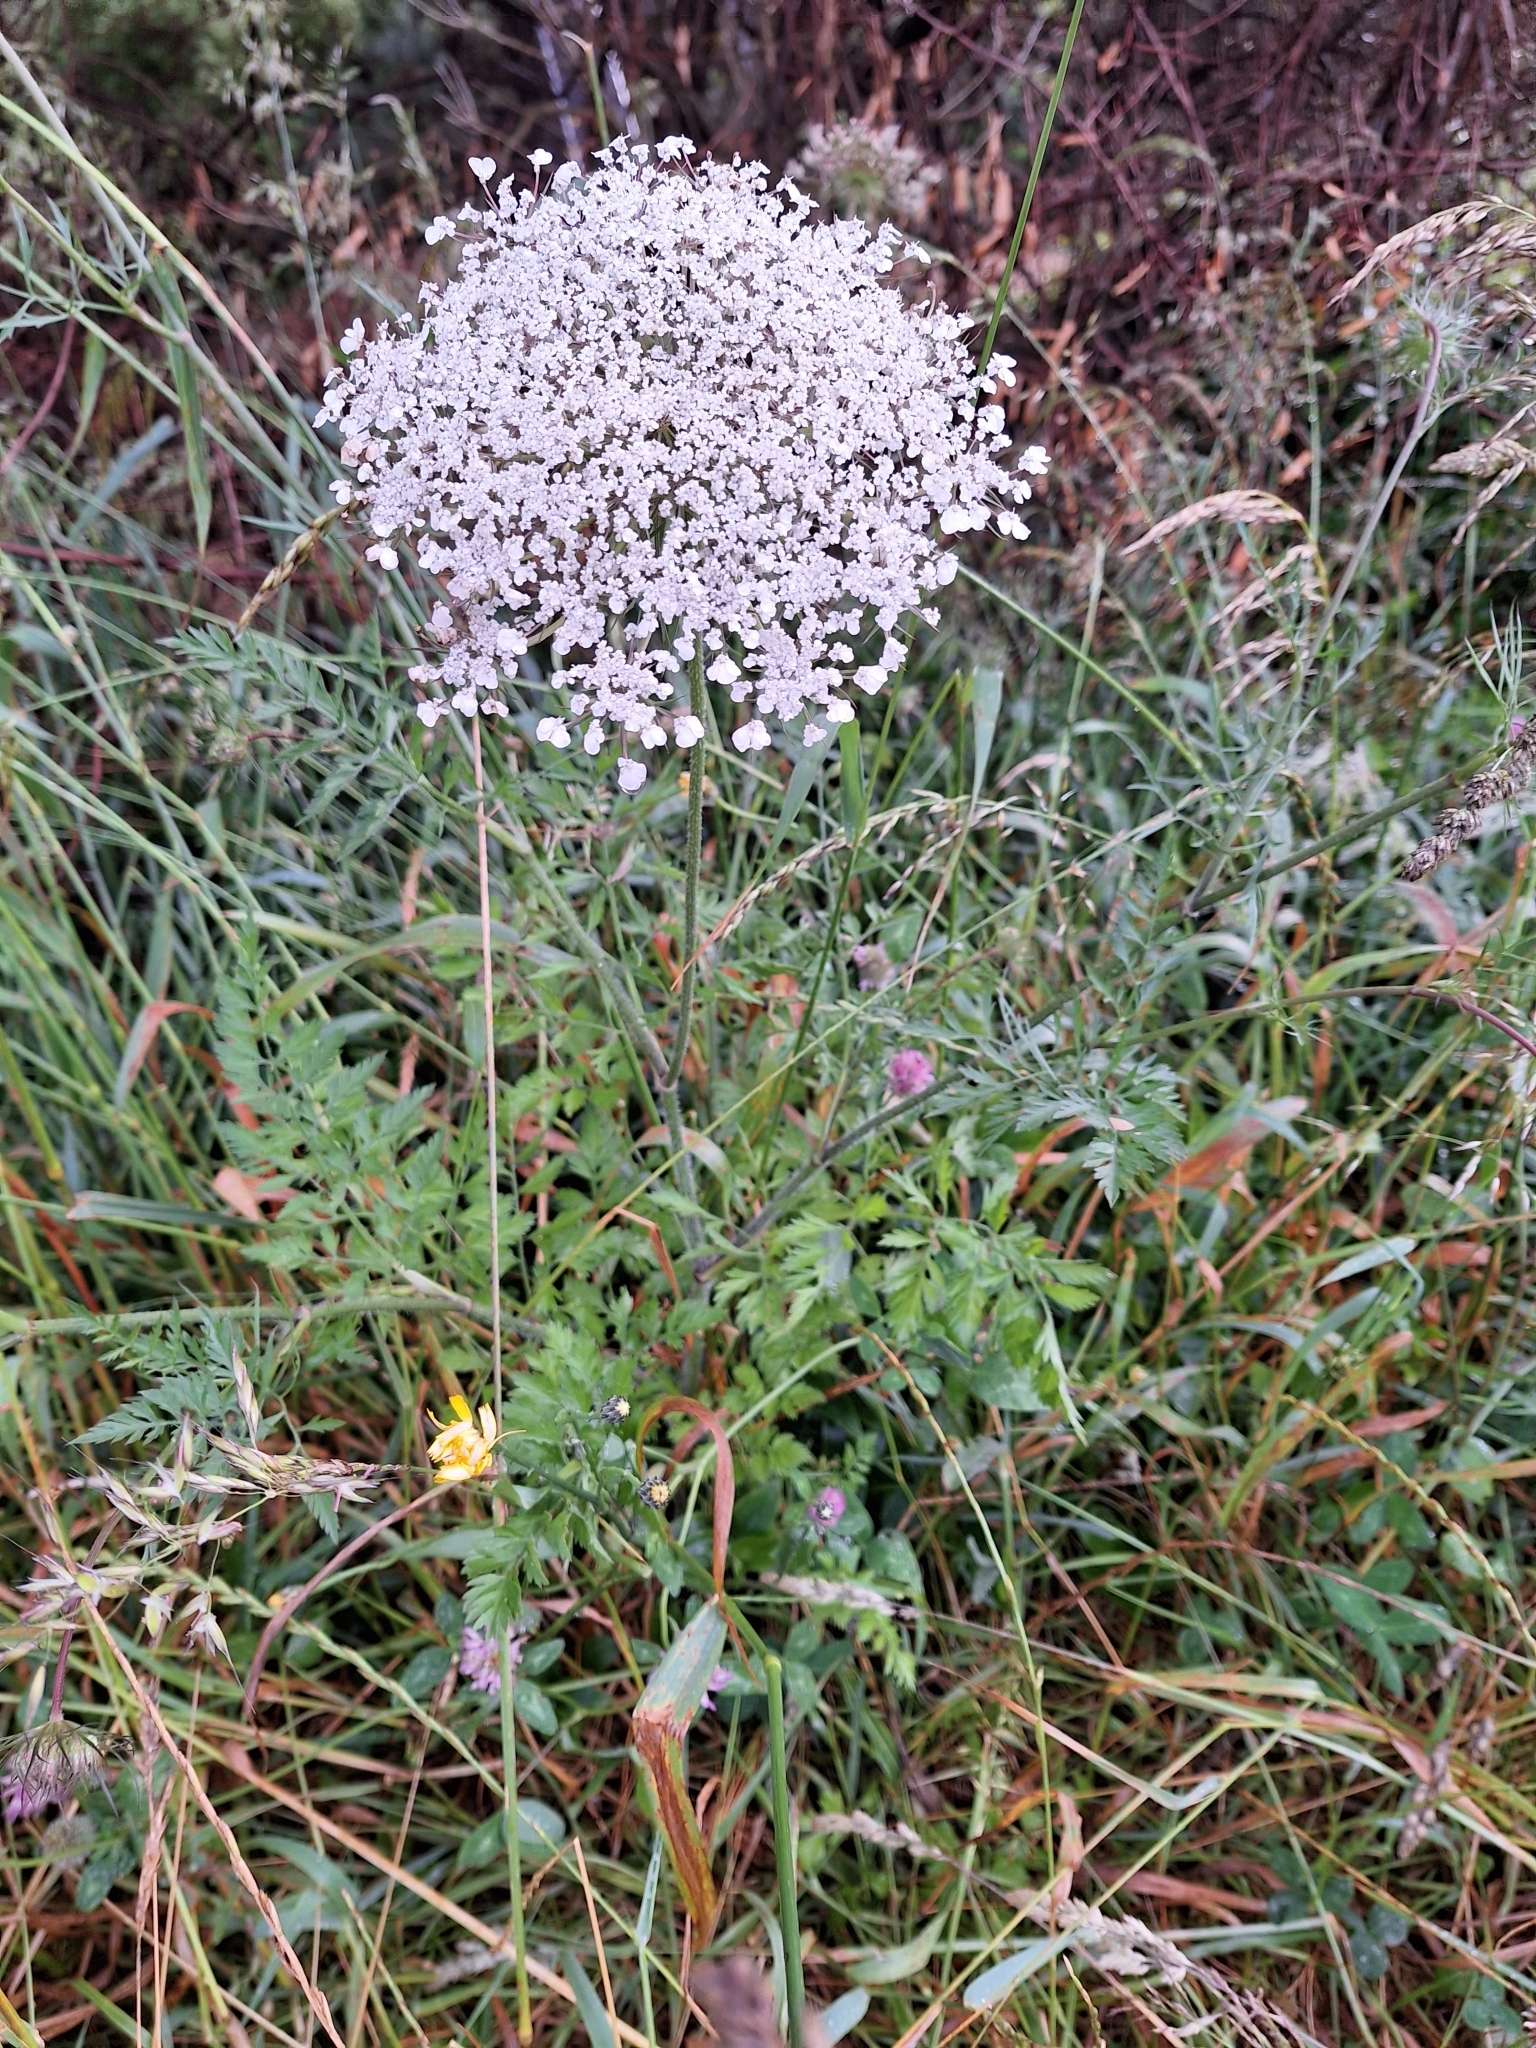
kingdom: Plantae
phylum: Tracheophyta
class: Magnoliopsida
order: Apiales
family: Apiaceae
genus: Daucus
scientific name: Daucus carota
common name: Wild carrot
